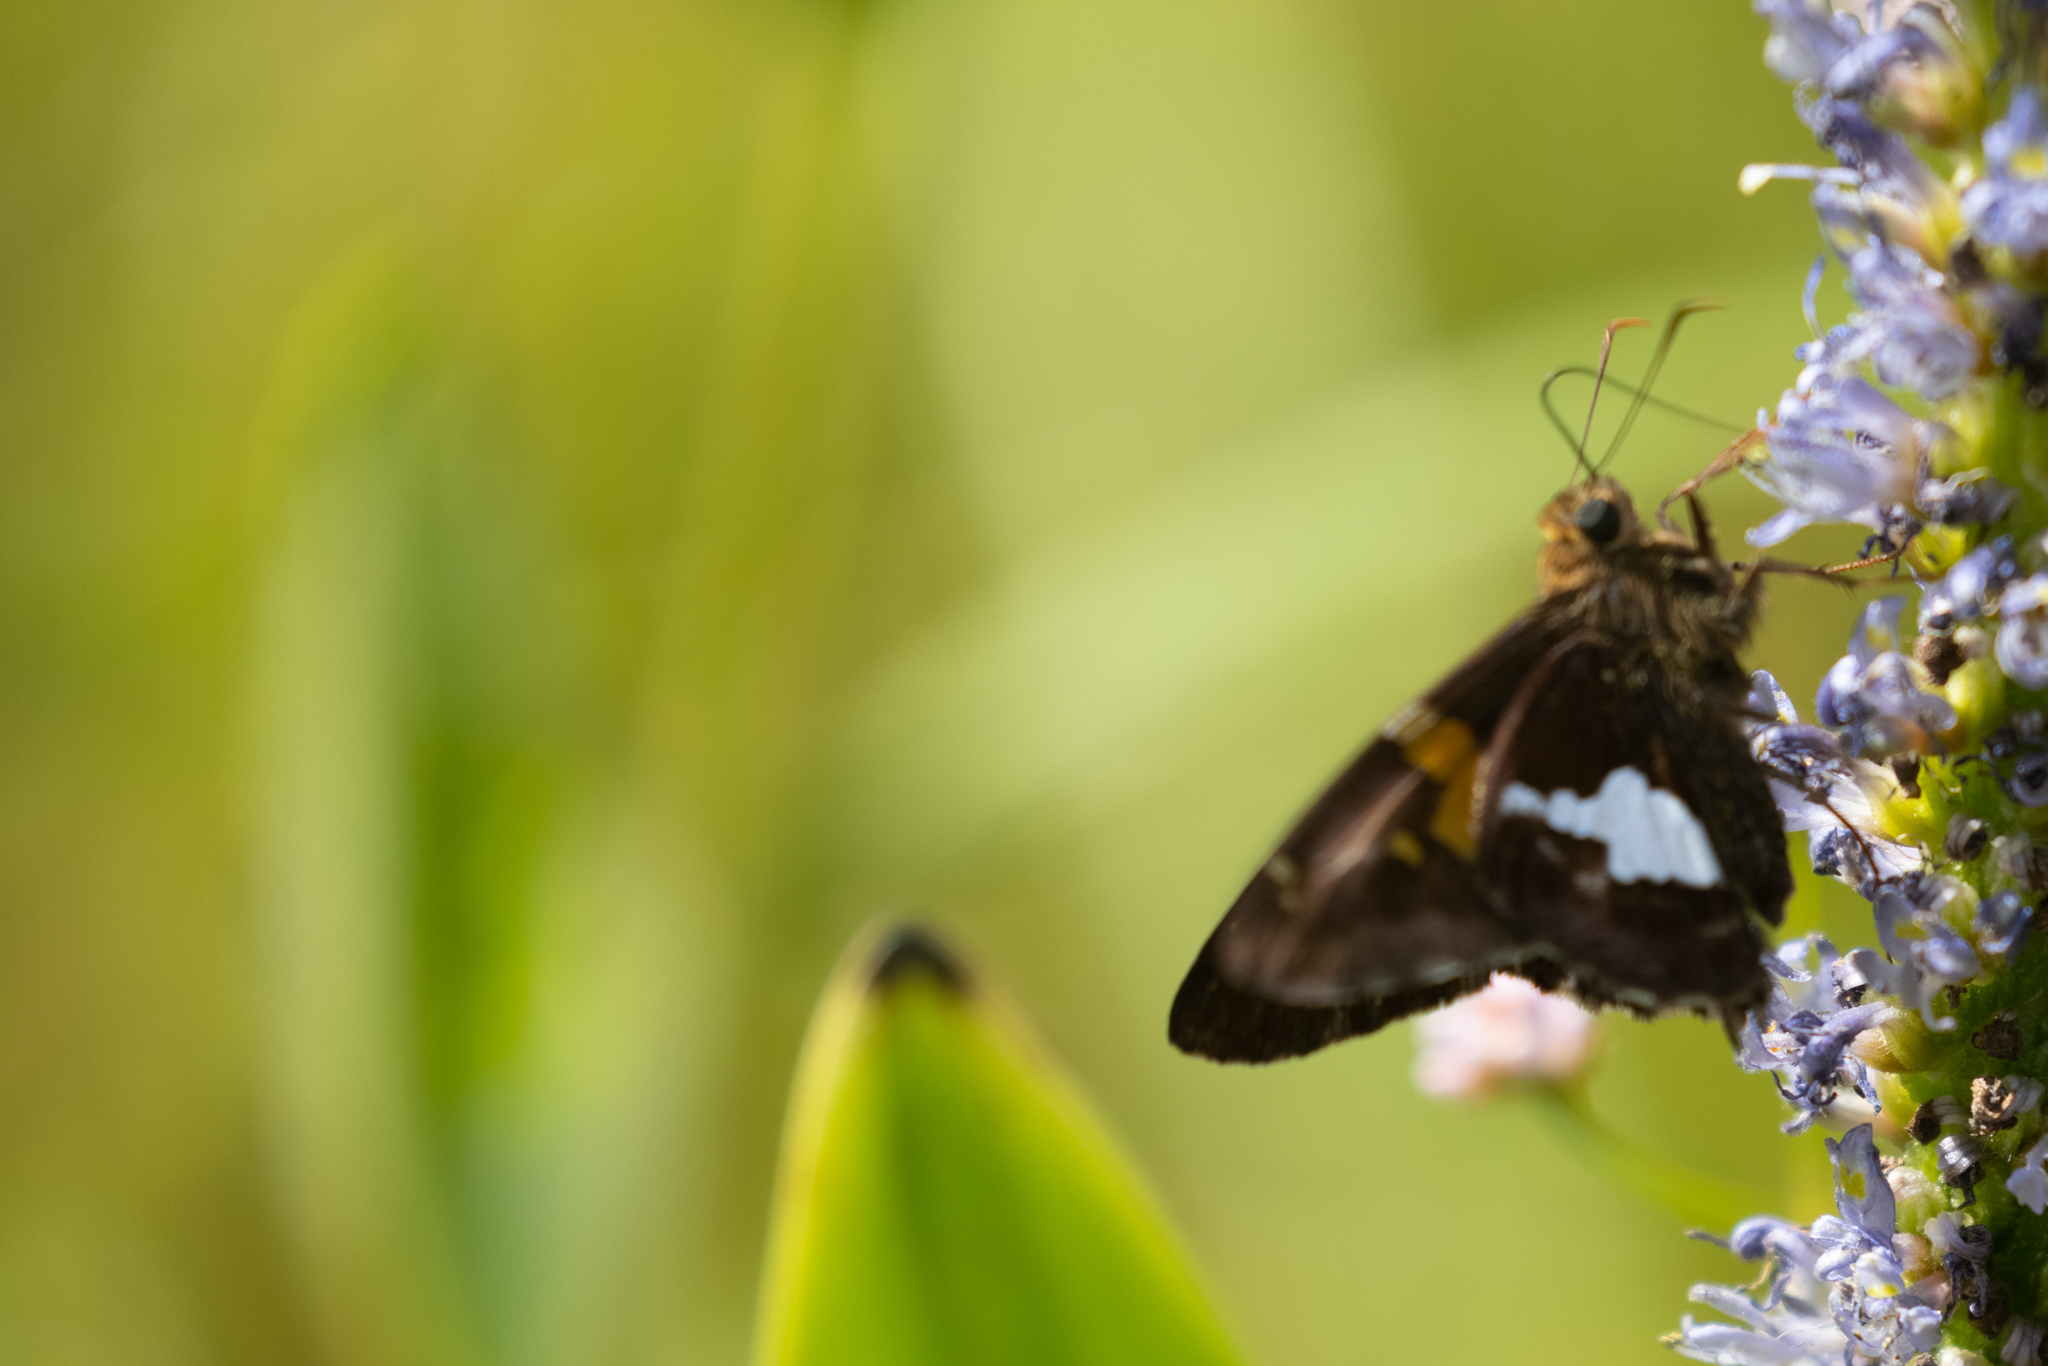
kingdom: Animalia
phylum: Arthropoda
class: Insecta
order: Lepidoptera
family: Hesperiidae
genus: Epargyreus
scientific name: Epargyreus clarus
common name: Silver-spotted skipper
